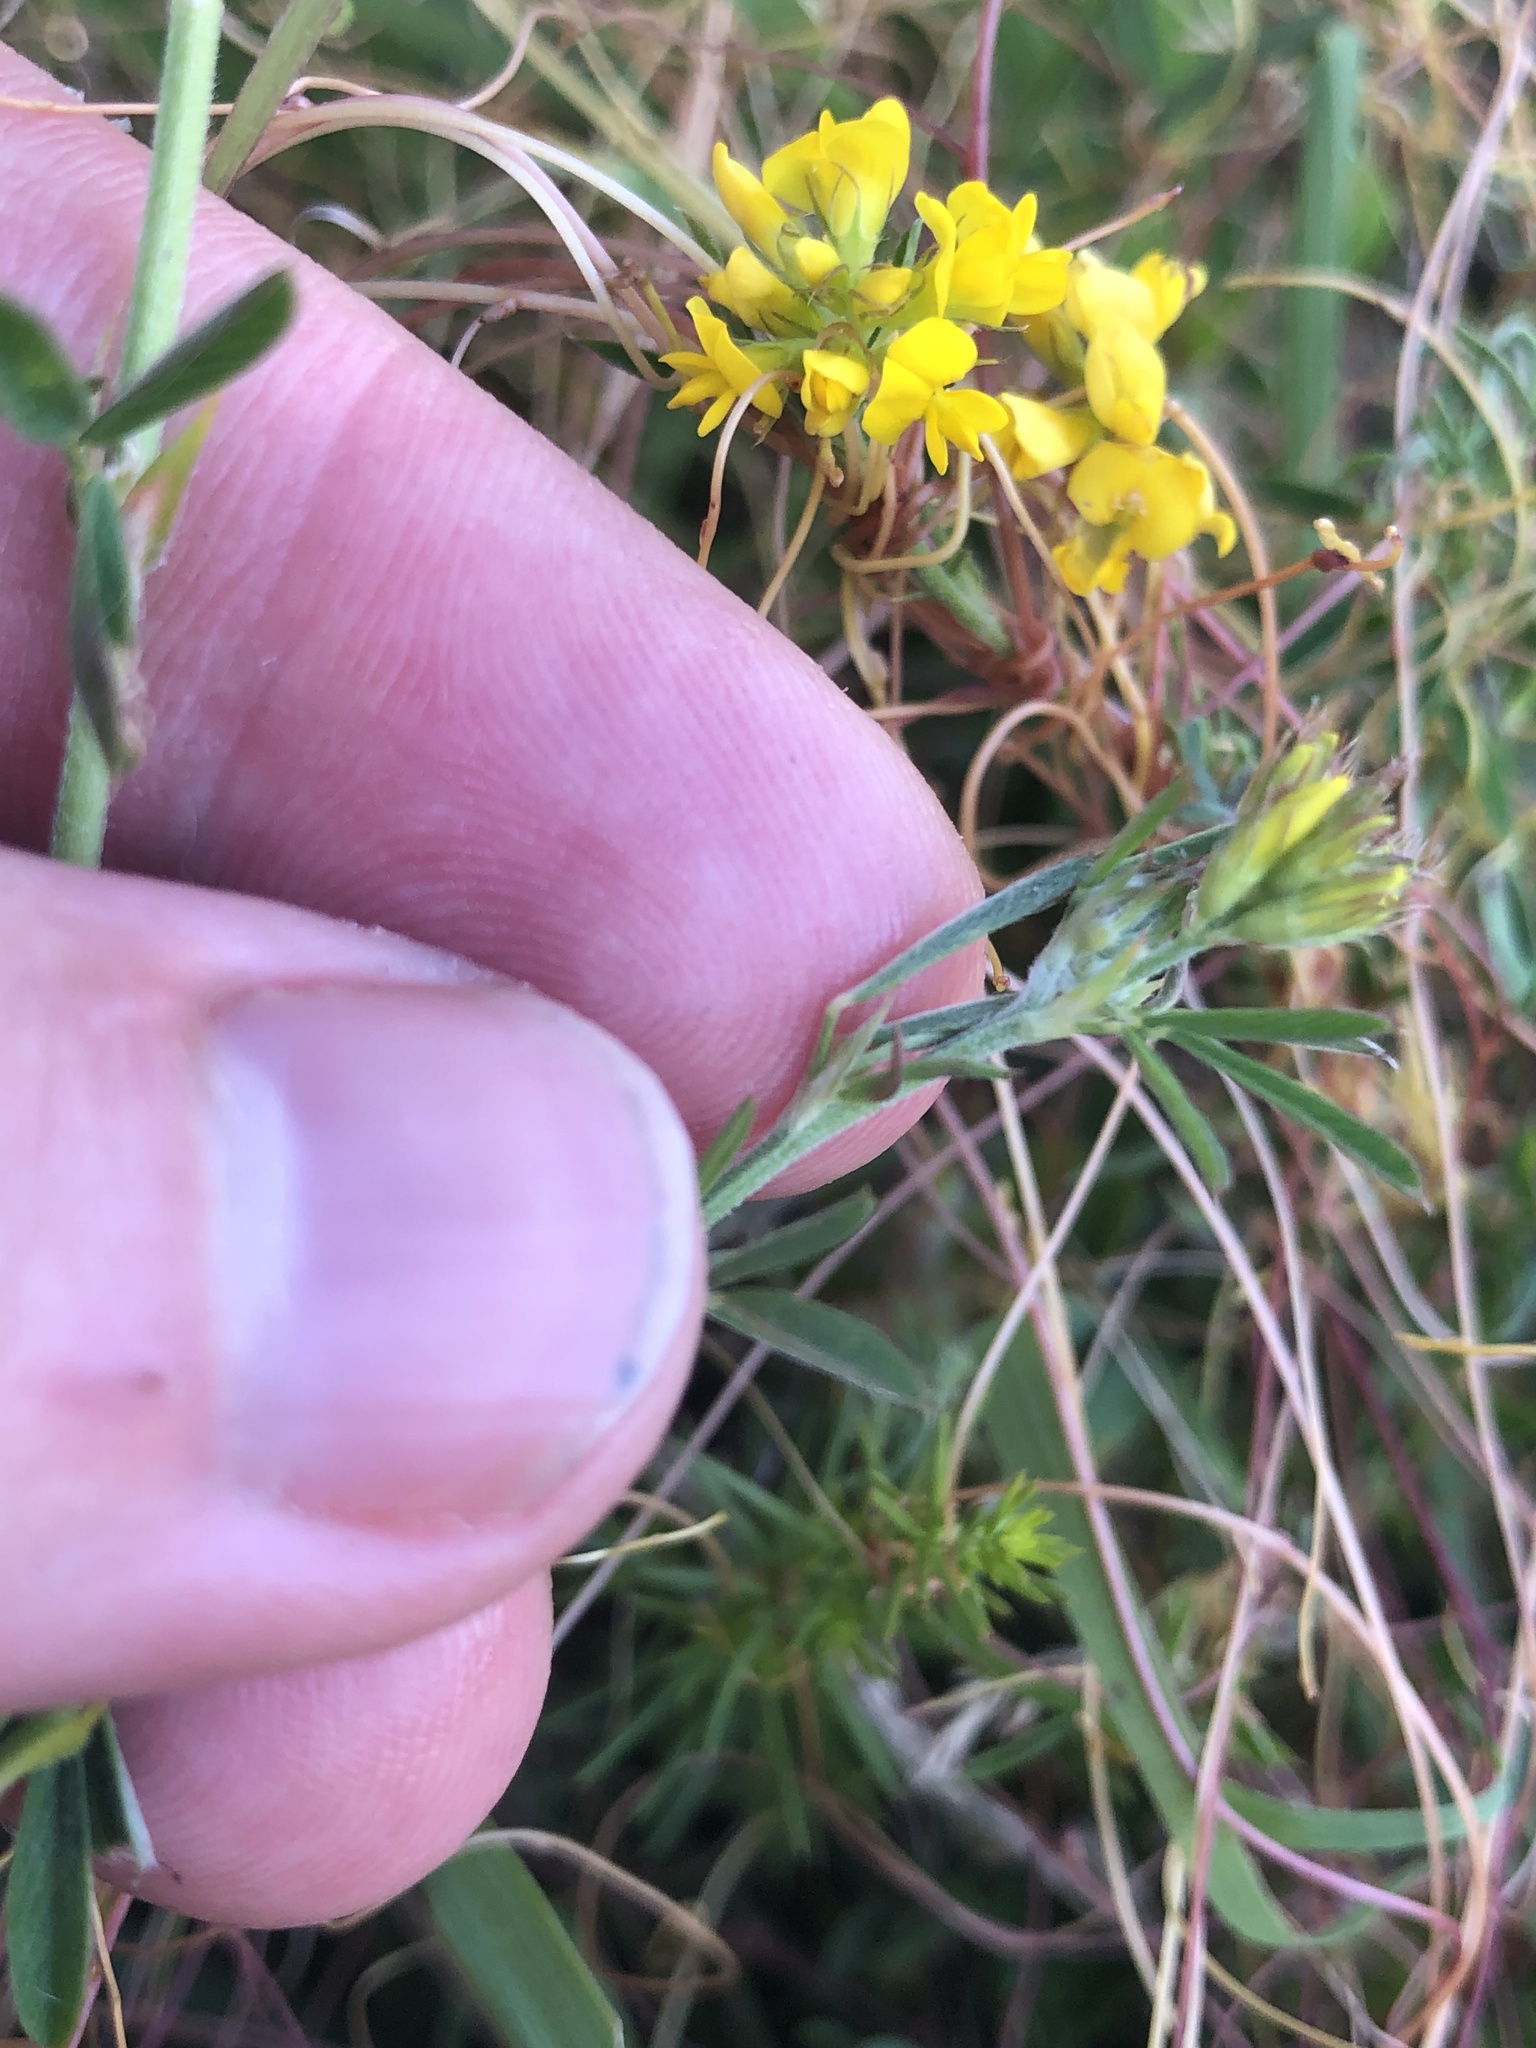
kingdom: Plantae
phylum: Tracheophyta
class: Magnoliopsida
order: Fabales
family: Fabaceae
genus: Medicago
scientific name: Medicago falcata
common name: Sickle medick
